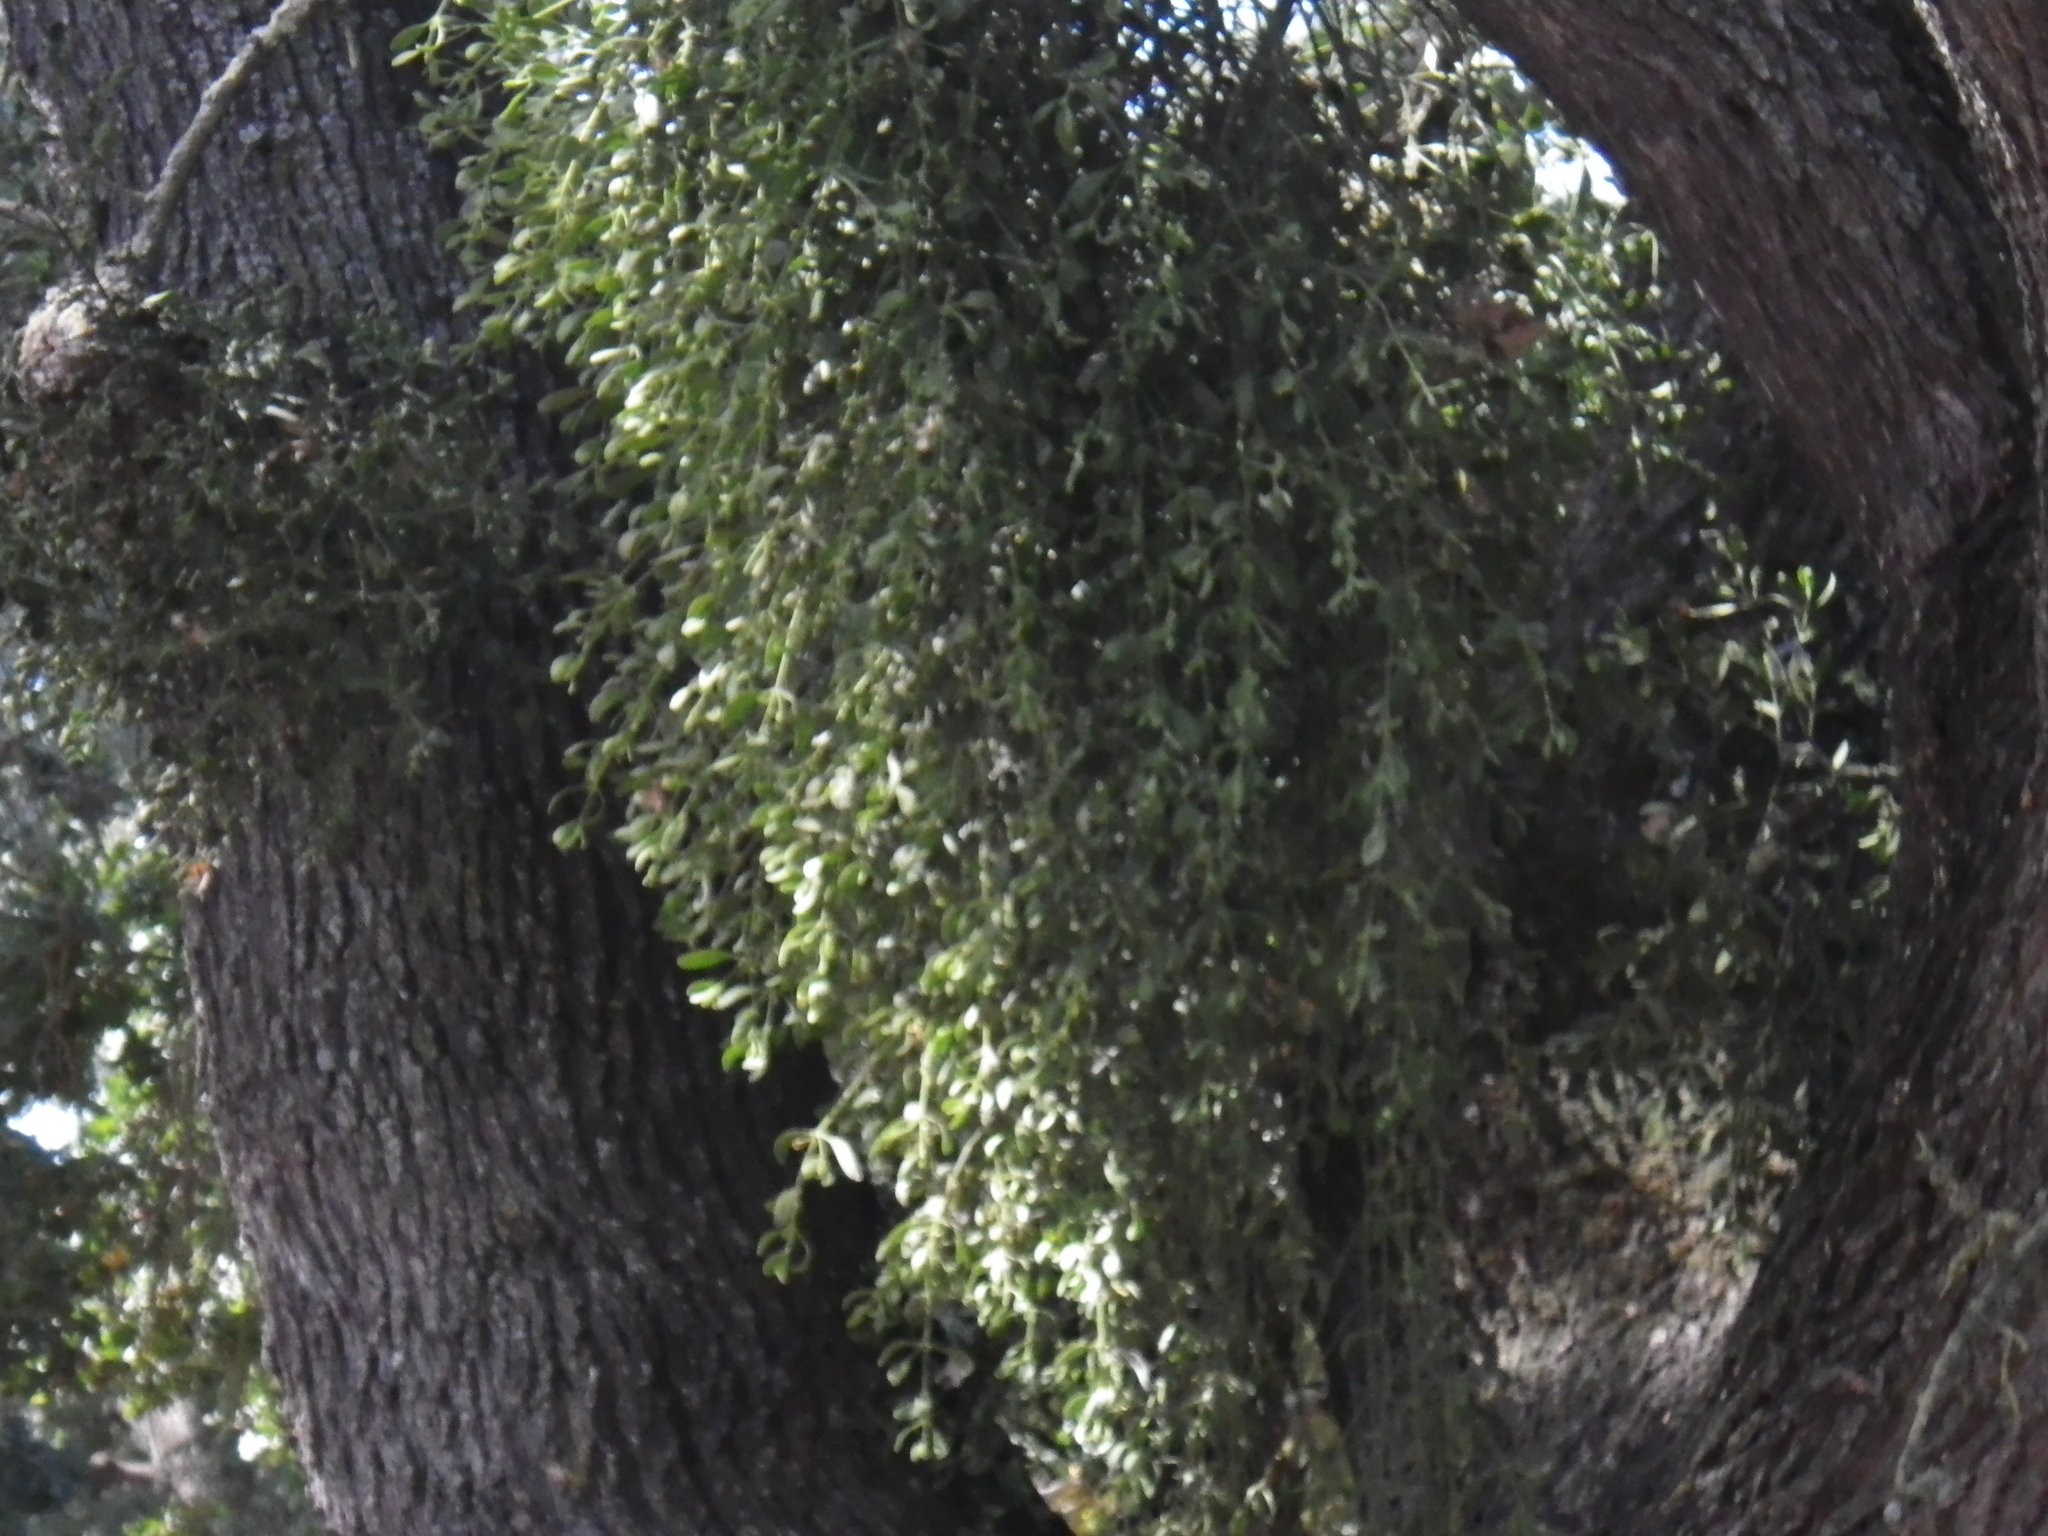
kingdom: Plantae
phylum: Tracheophyta
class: Magnoliopsida
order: Santalales
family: Viscaceae
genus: Phoradendron
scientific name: Phoradendron leucarpum
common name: Pacific mistletoe
